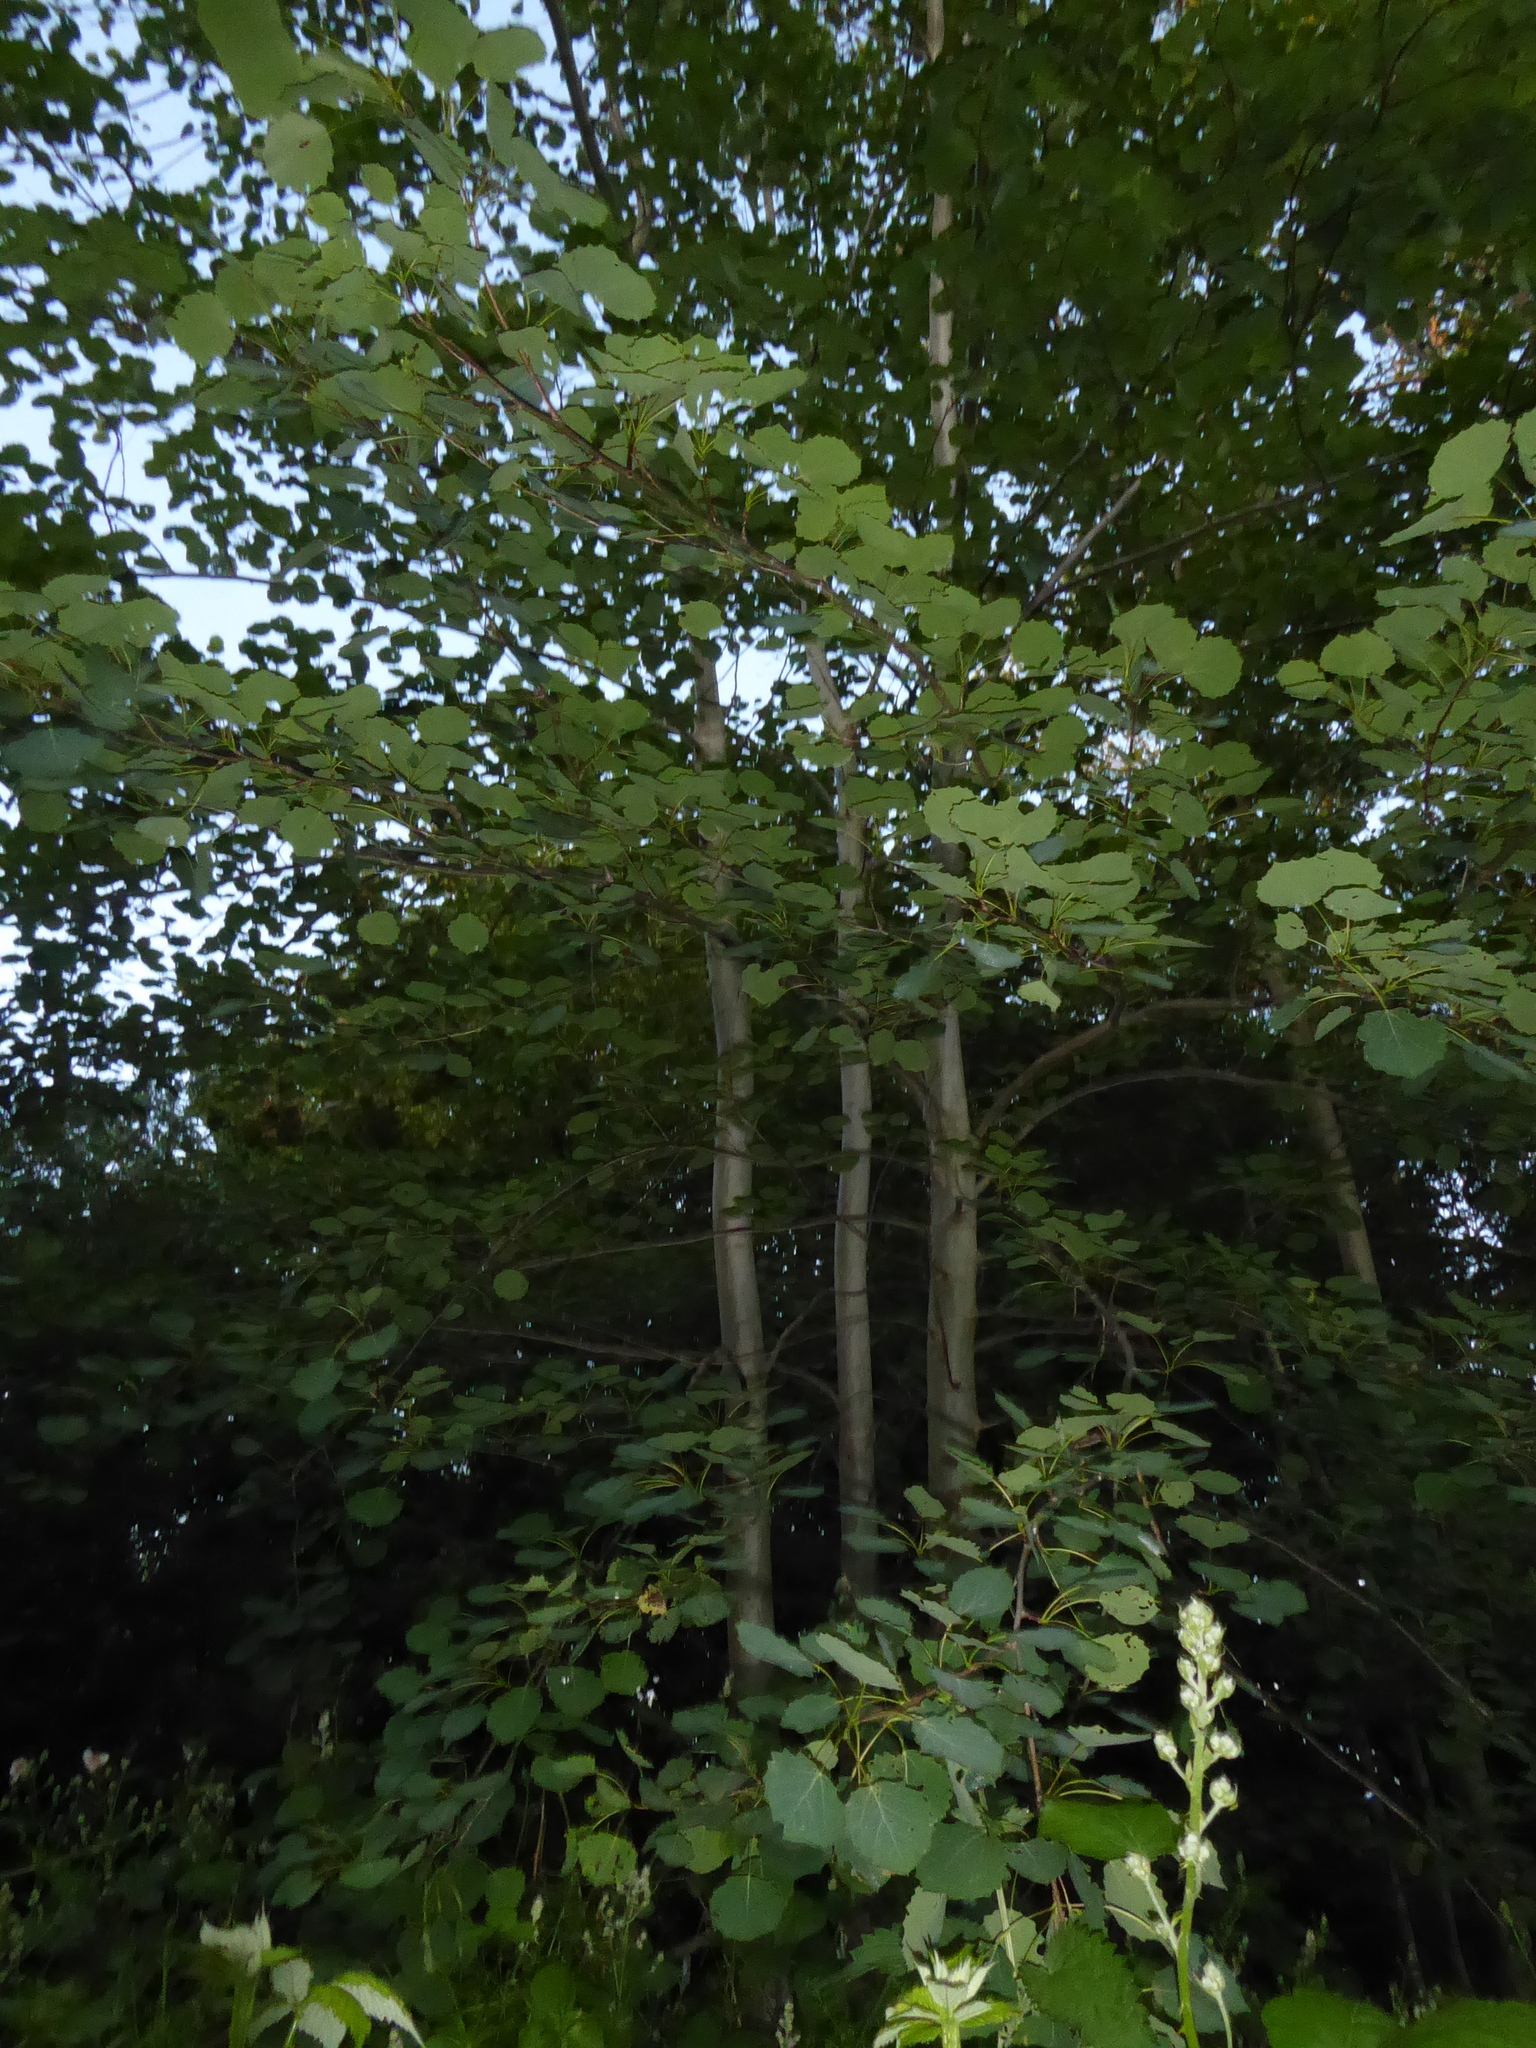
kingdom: Plantae
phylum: Tracheophyta
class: Magnoliopsida
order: Malpighiales
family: Salicaceae
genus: Populus
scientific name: Populus tremula
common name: European aspen
